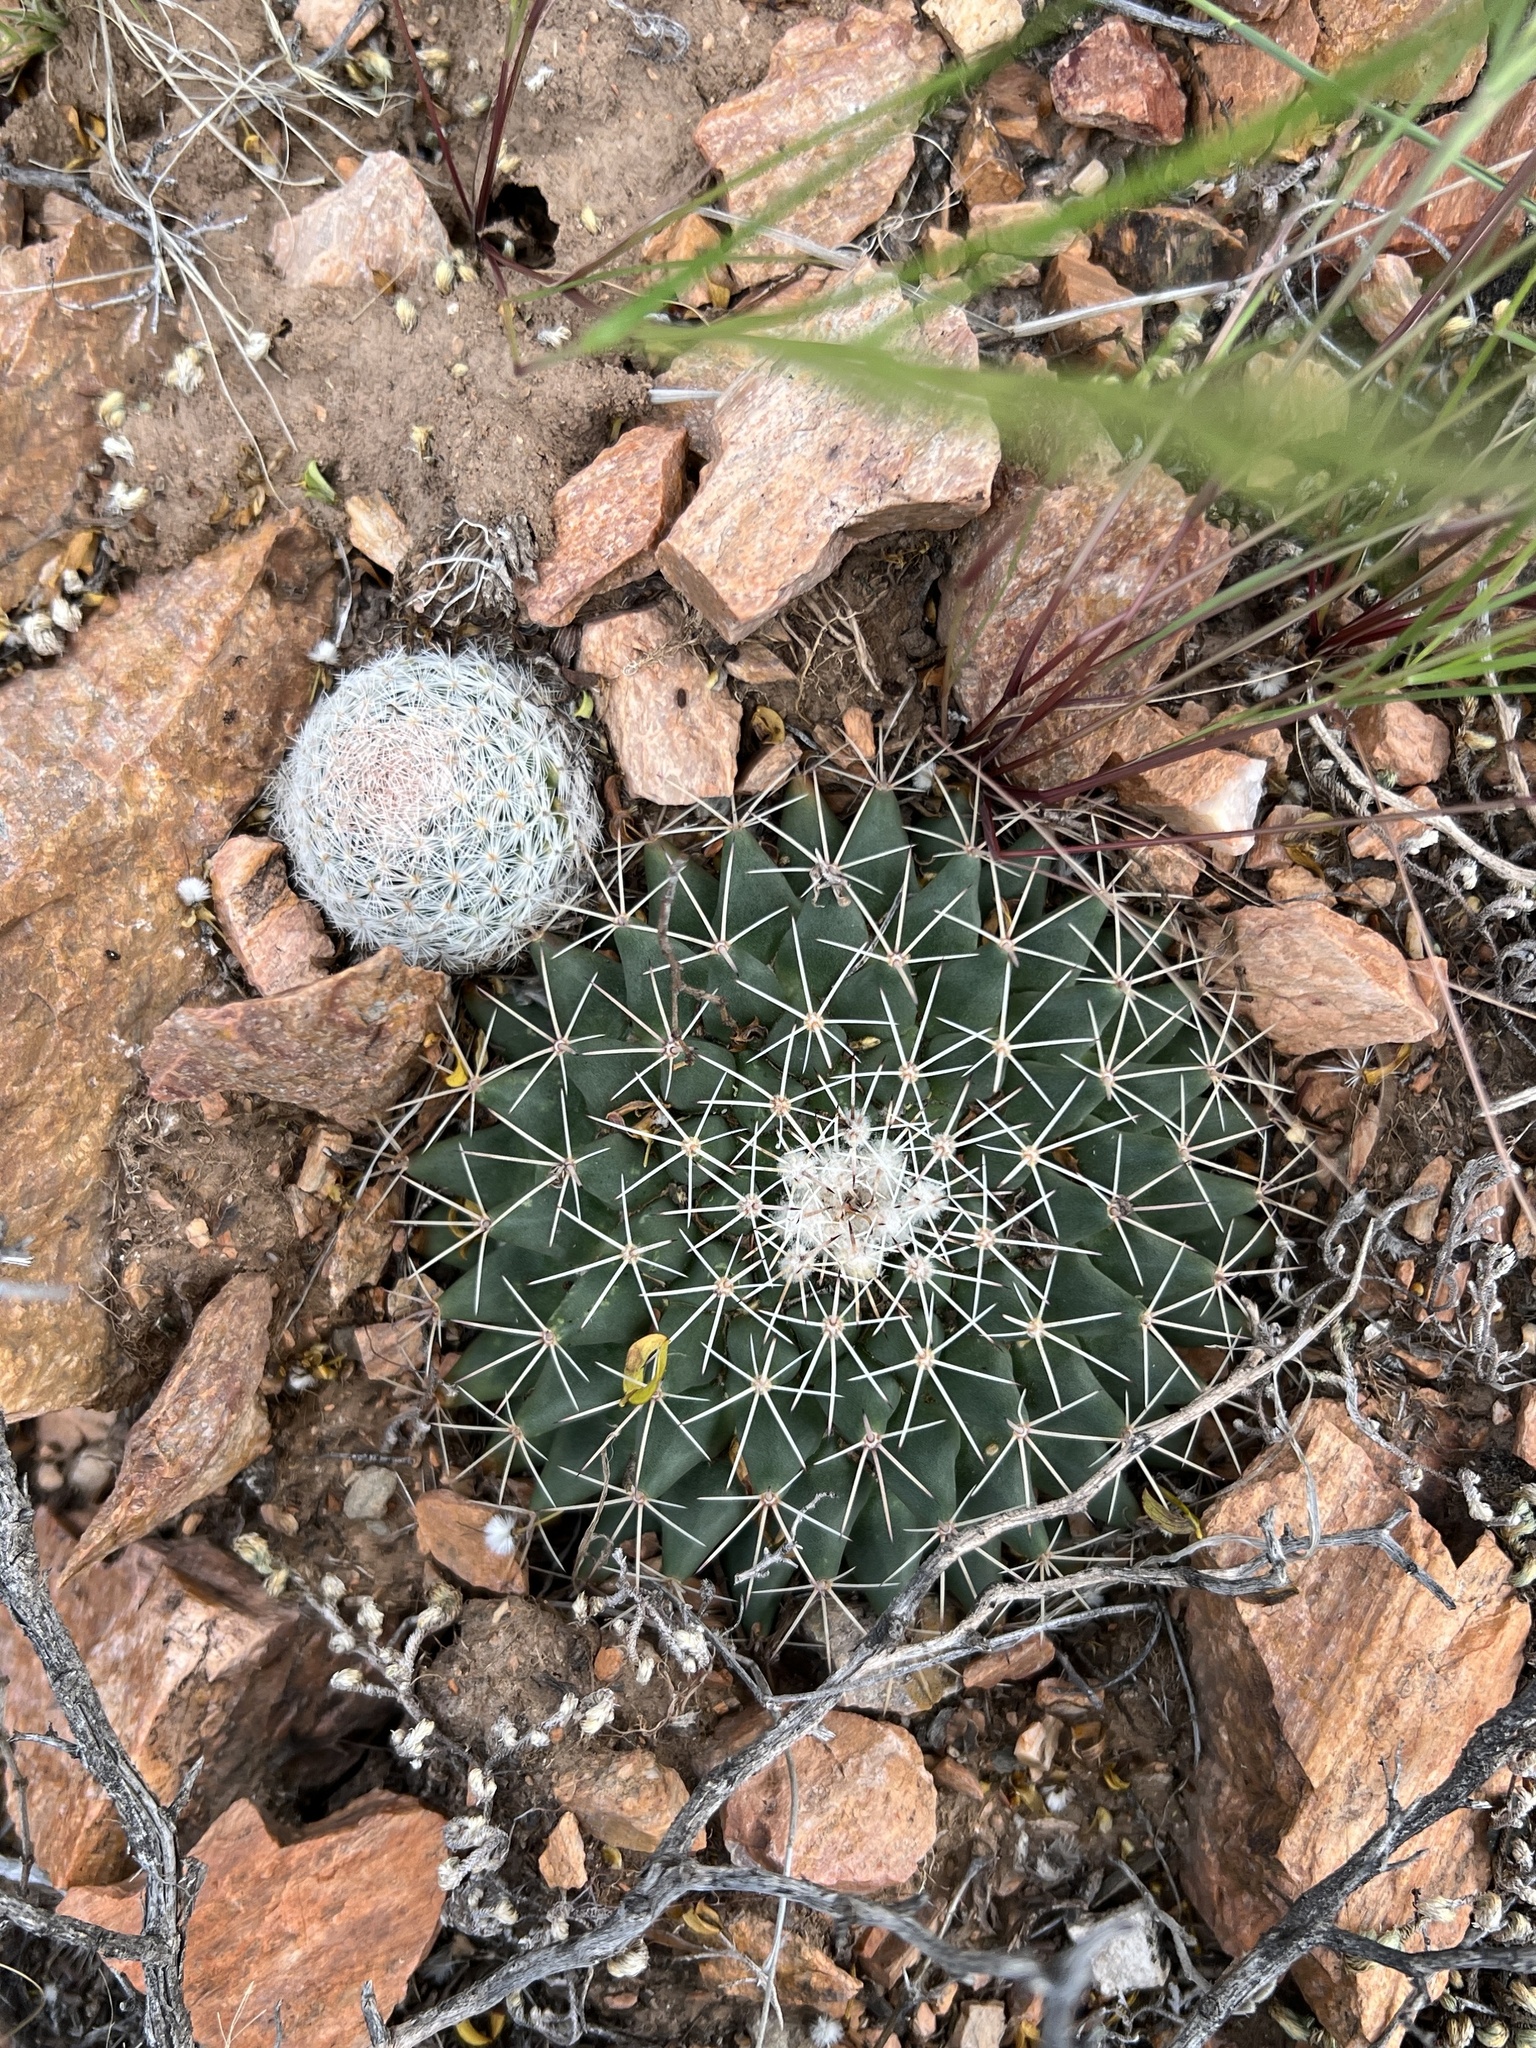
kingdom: Plantae
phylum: Tracheophyta
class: Magnoliopsida
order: Caryophyllales
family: Cactaceae
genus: Mammillaria
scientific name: Mammillaria lasiacantha
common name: Lace-spine nipple cactus
